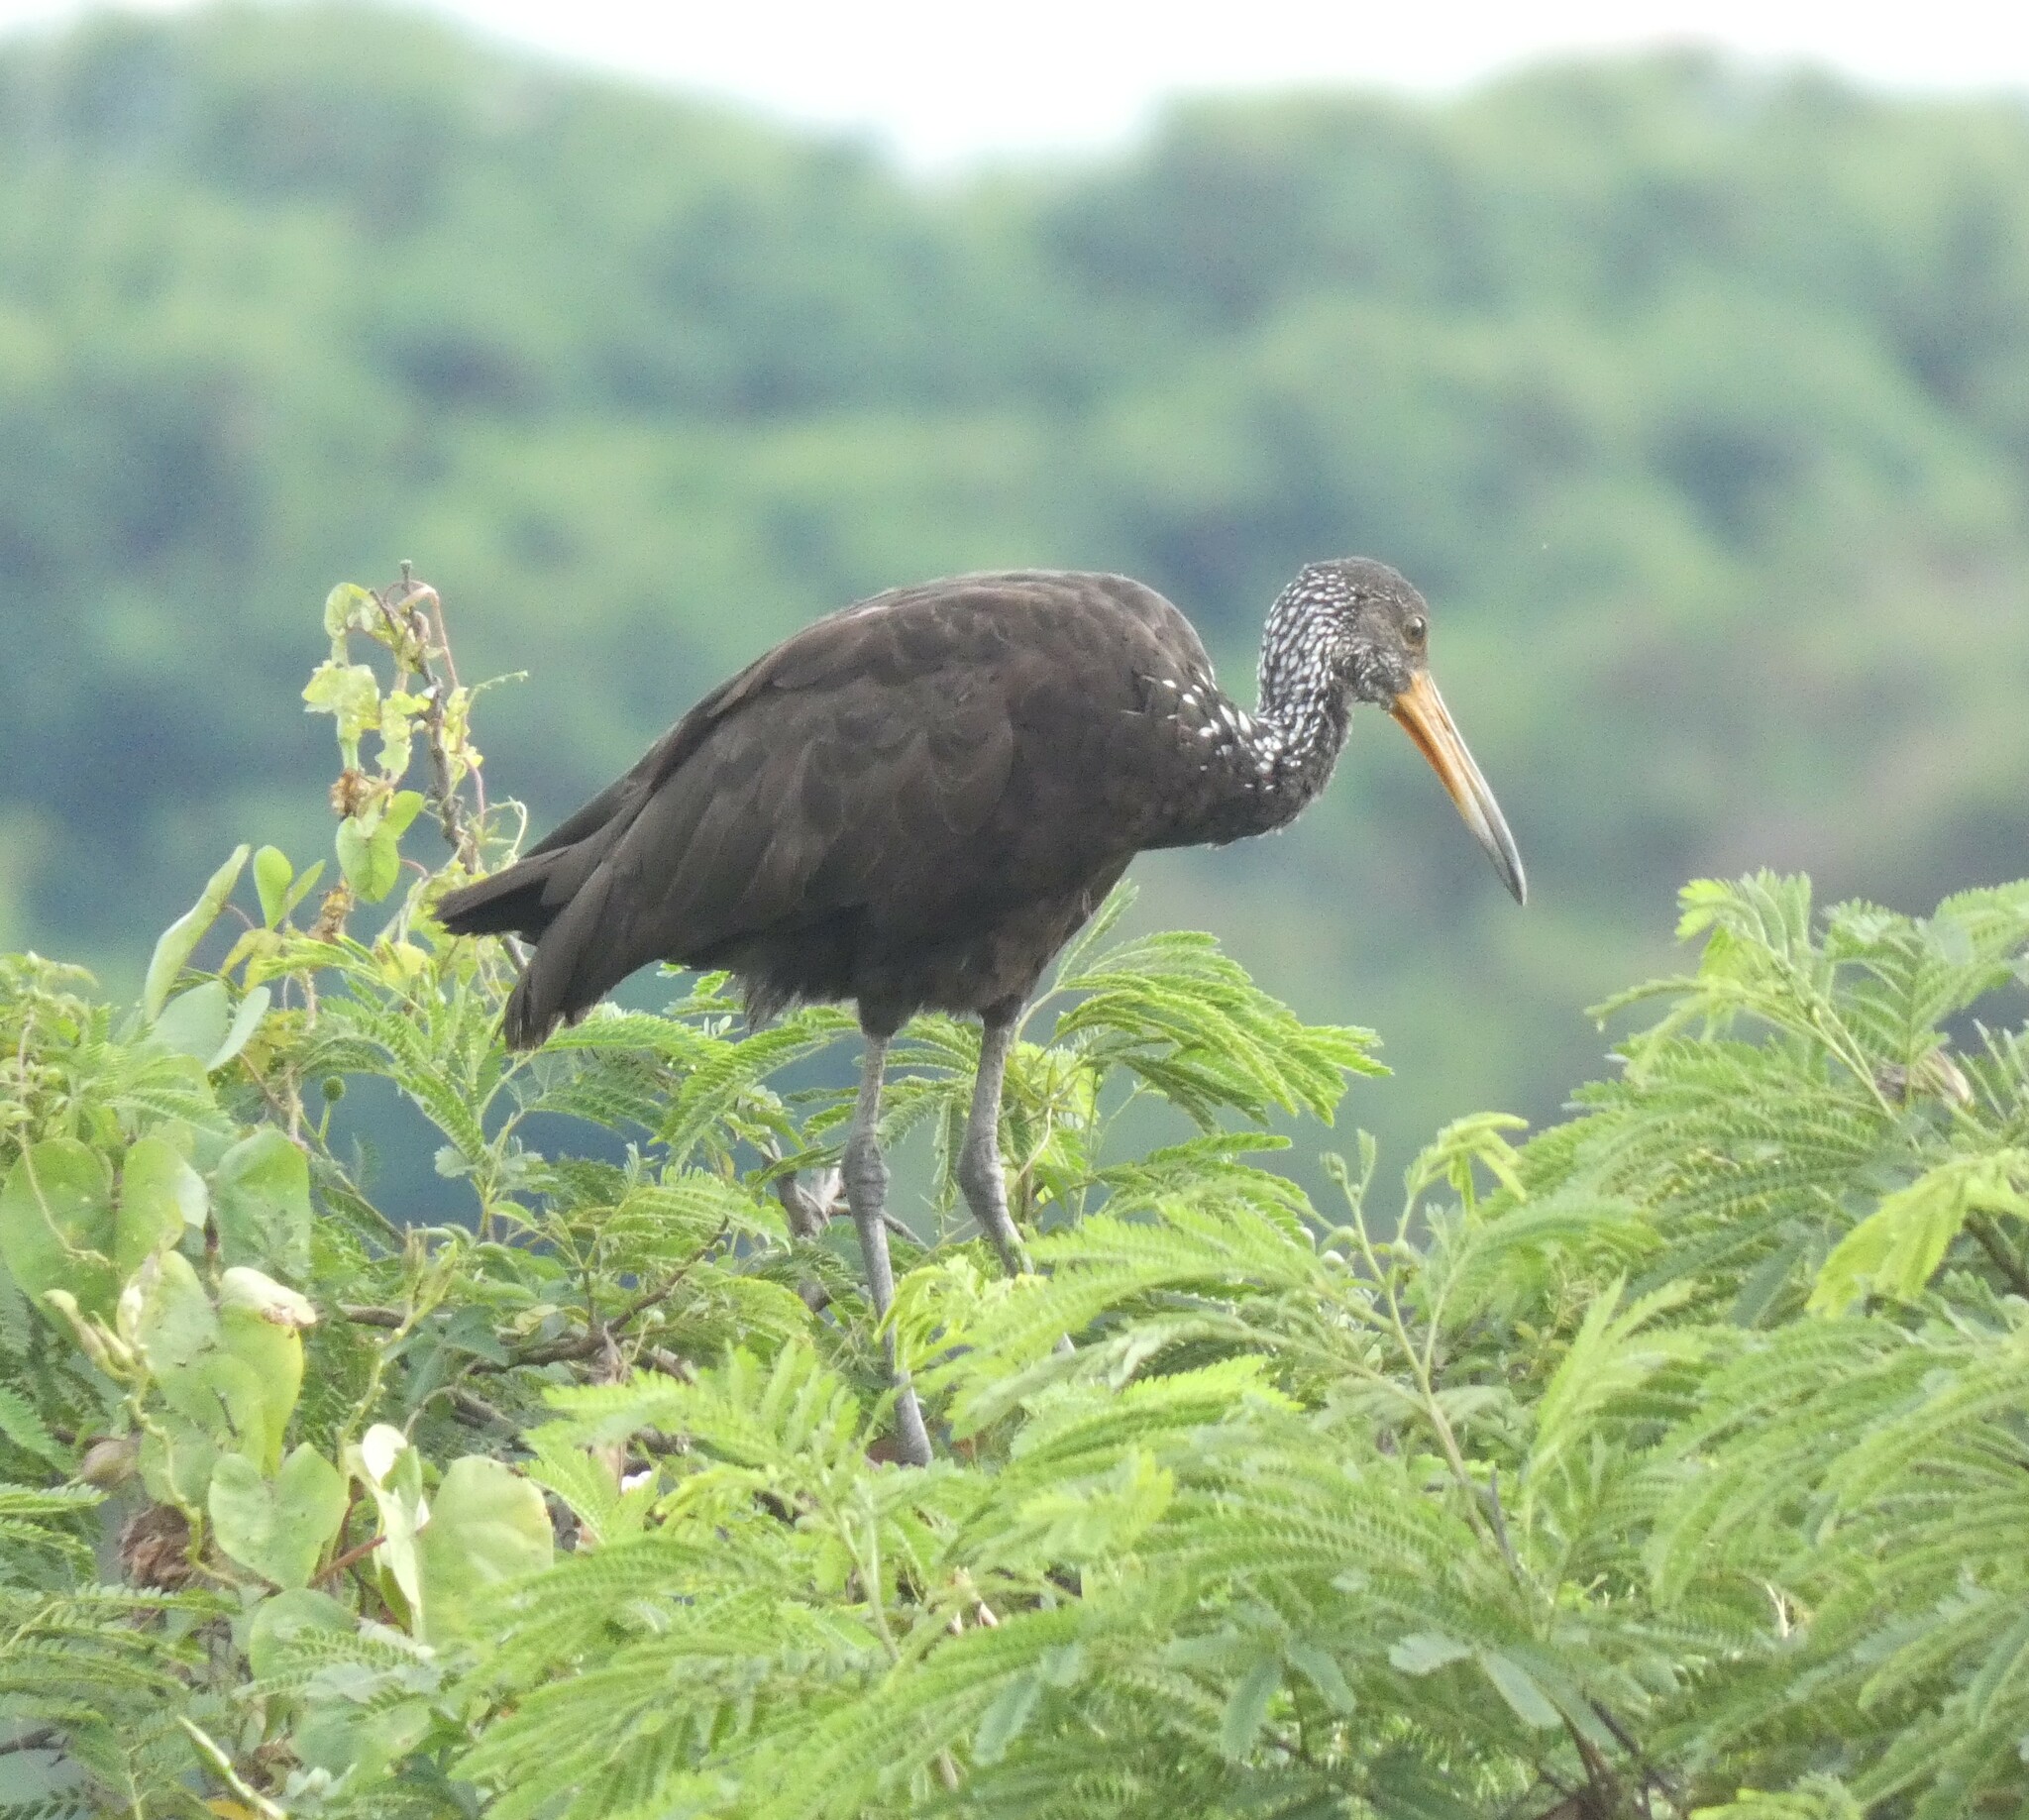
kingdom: Animalia
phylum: Chordata
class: Aves
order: Gruiformes
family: Aramidae
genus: Aramus
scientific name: Aramus guarauna
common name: Limpkin
